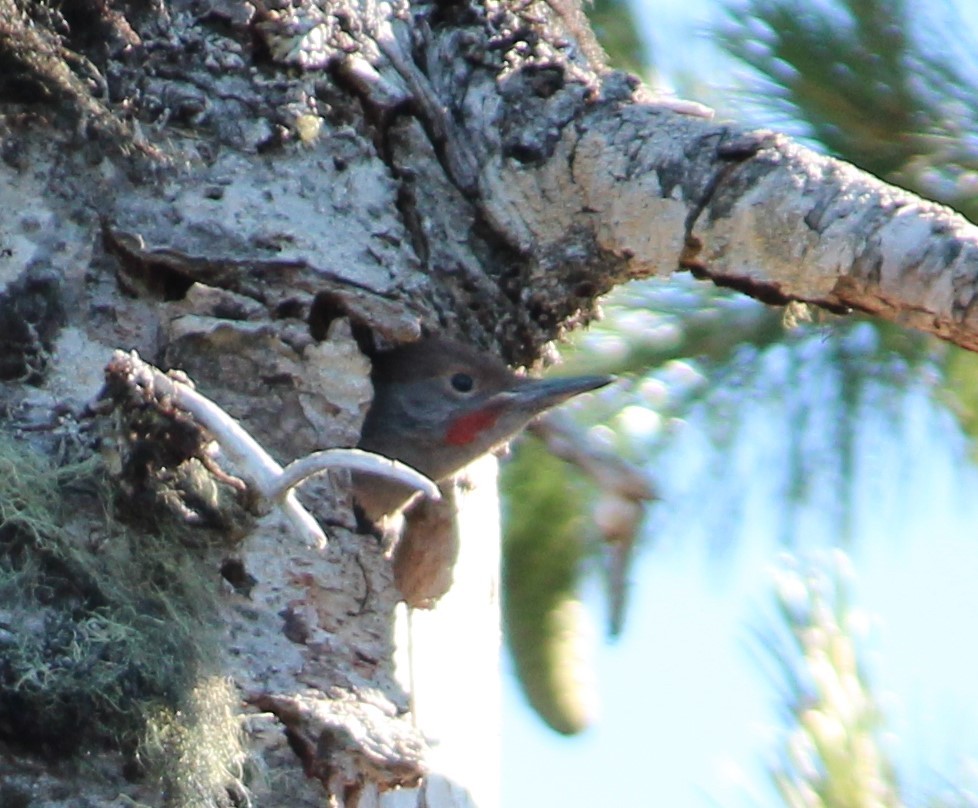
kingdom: Animalia
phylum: Chordata
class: Aves
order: Piciformes
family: Picidae
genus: Colaptes
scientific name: Colaptes auratus
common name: Northern flicker
